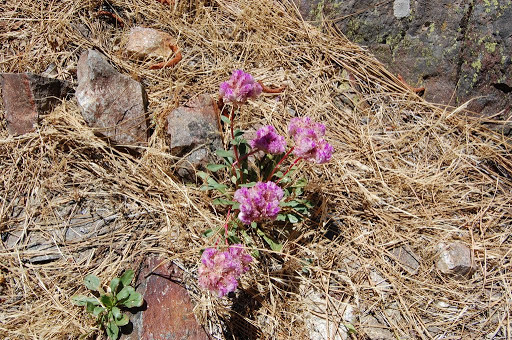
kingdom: Plantae
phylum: Tracheophyta
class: Magnoliopsida
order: Caryophyllales
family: Montiaceae
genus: Calyptridium
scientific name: Calyptridium monospermum
